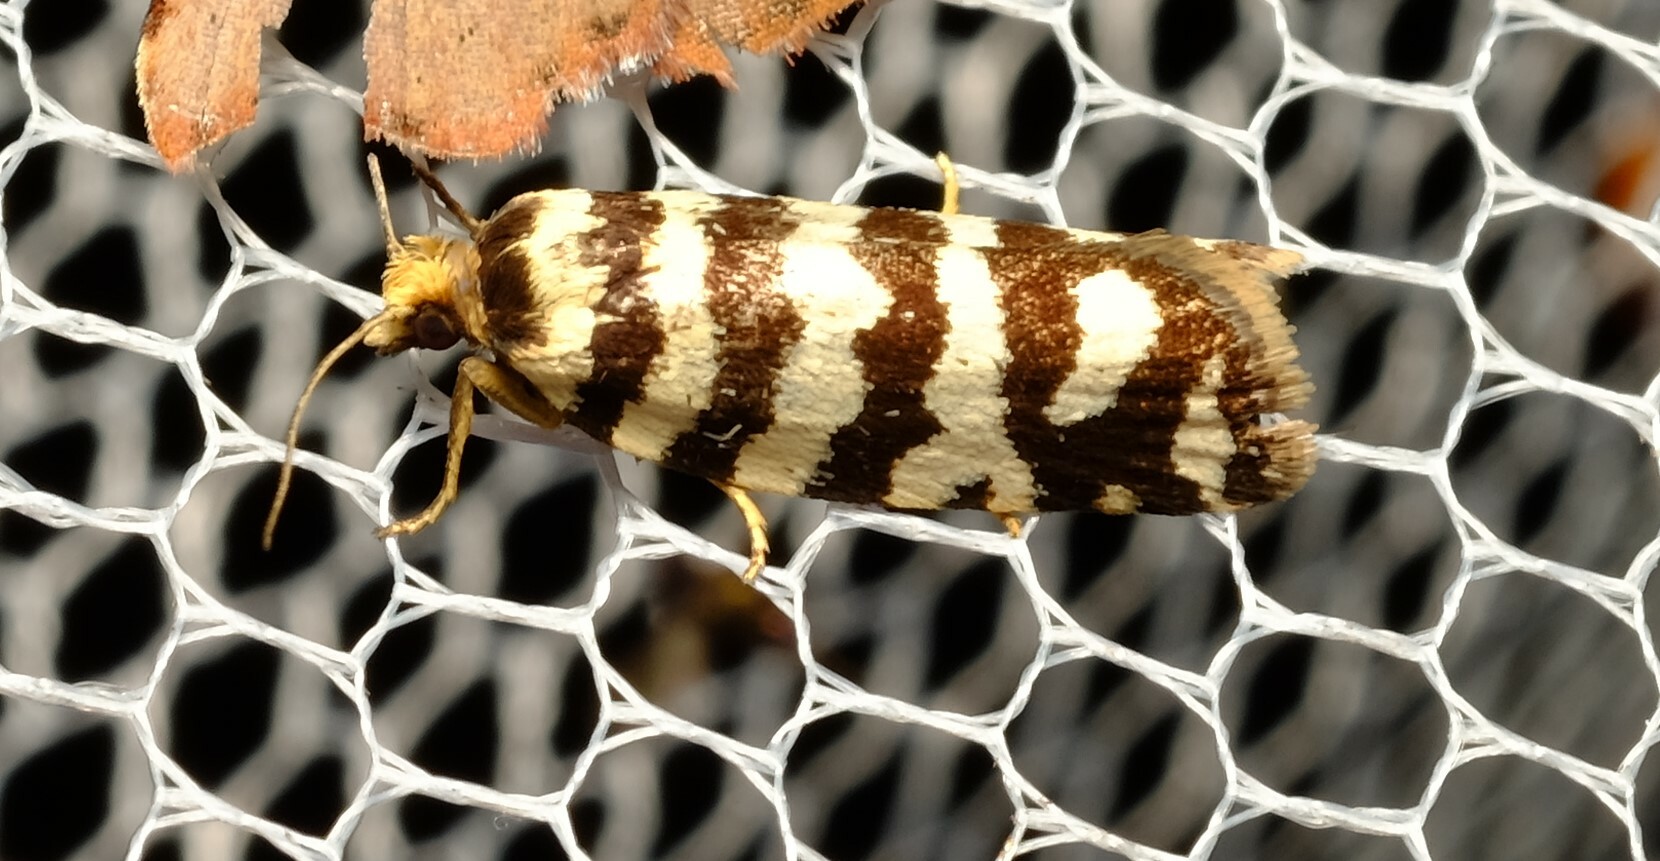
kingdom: Animalia
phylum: Arthropoda
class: Insecta
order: Lepidoptera
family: Tortricidae
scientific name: Tortricidae
